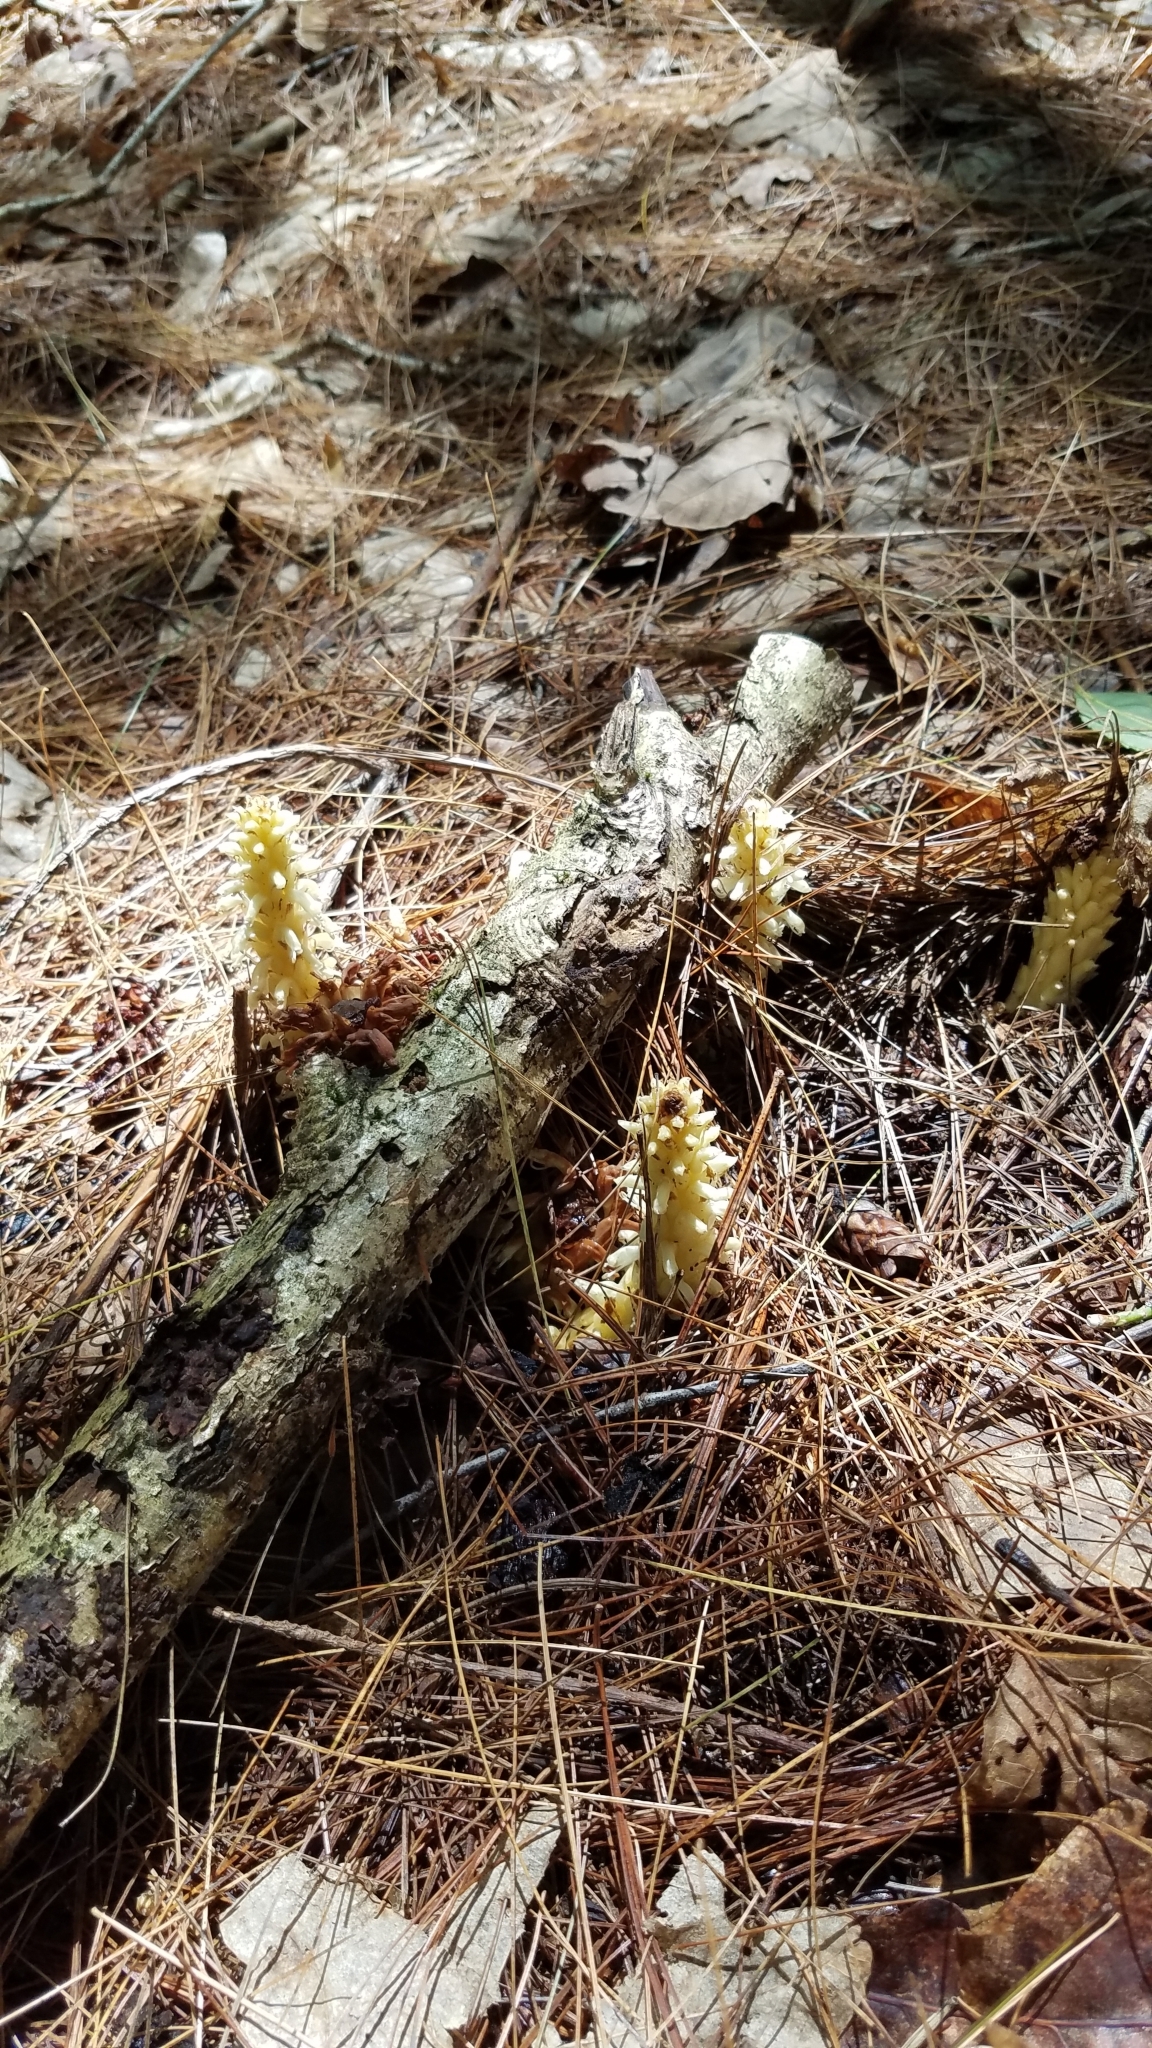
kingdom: Plantae
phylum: Tracheophyta
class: Magnoliopsida
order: Lamiales
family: Orobanchaceae
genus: Conopholis
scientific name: Conopholis americana
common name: American cancer-root
